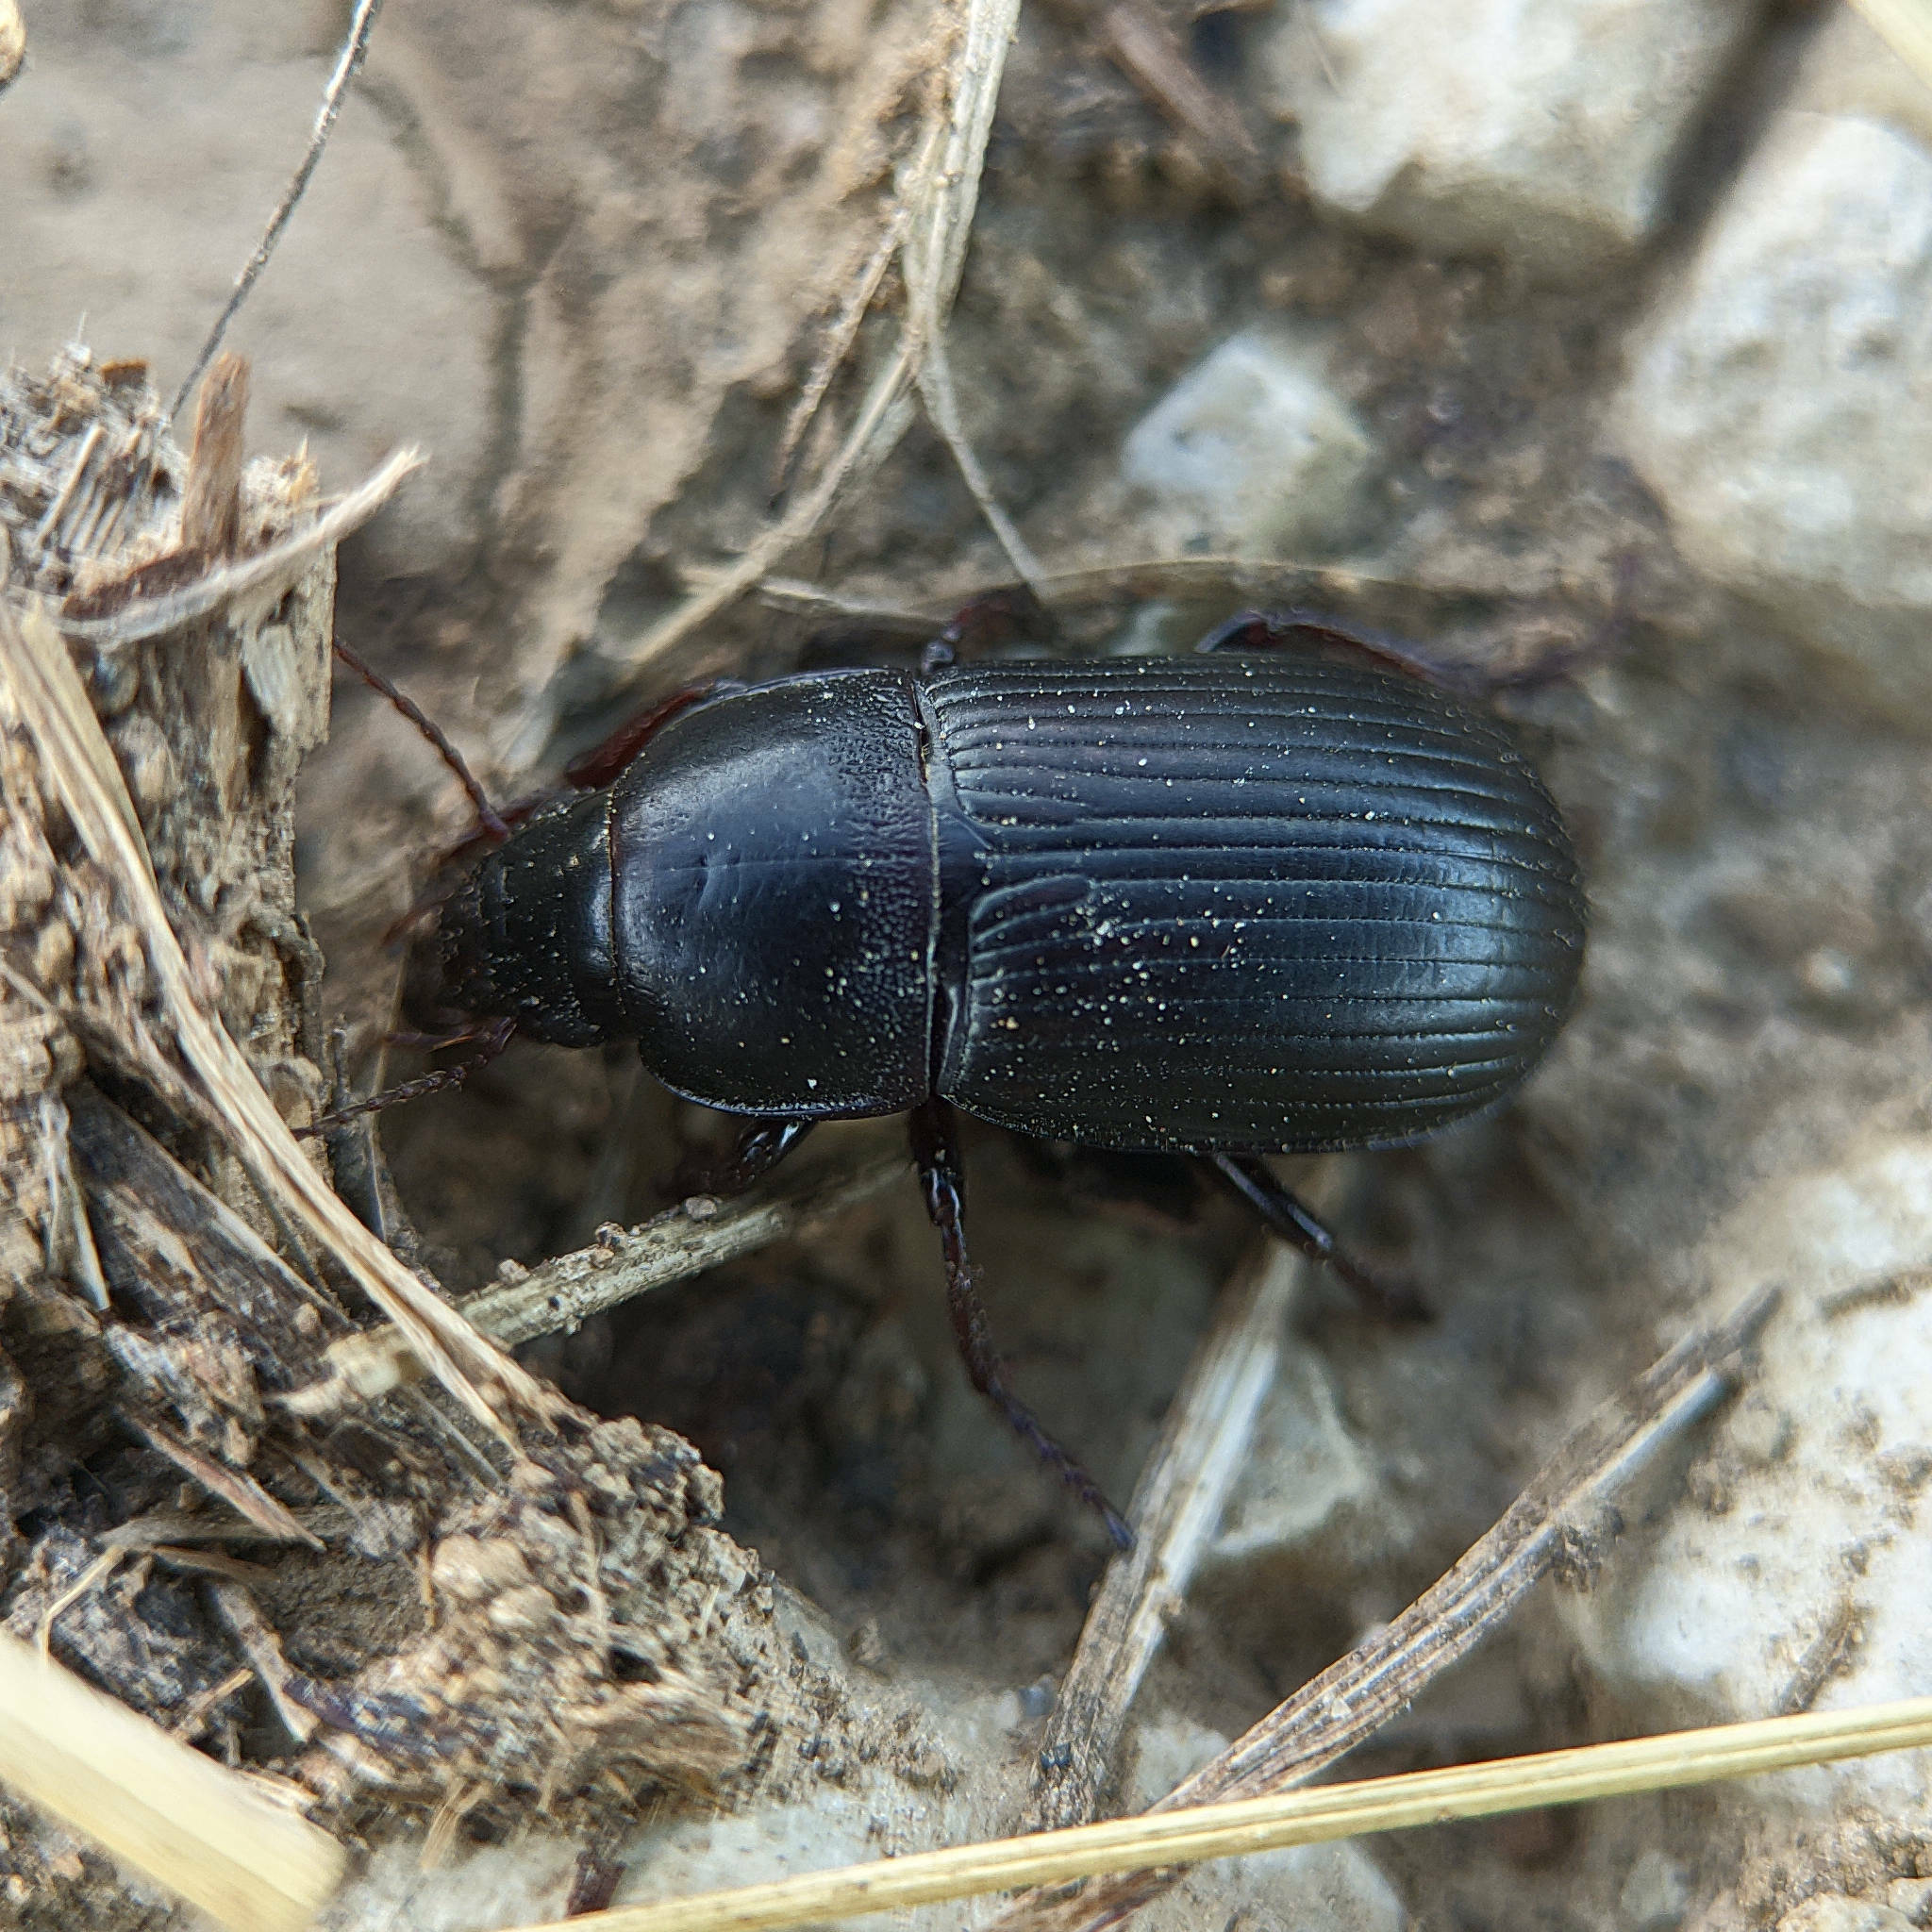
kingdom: Animalia
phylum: Arthropoda
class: Insecta
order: Coleoptera
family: Carabidae
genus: Zabrus
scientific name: Zabrus tenebrioides
